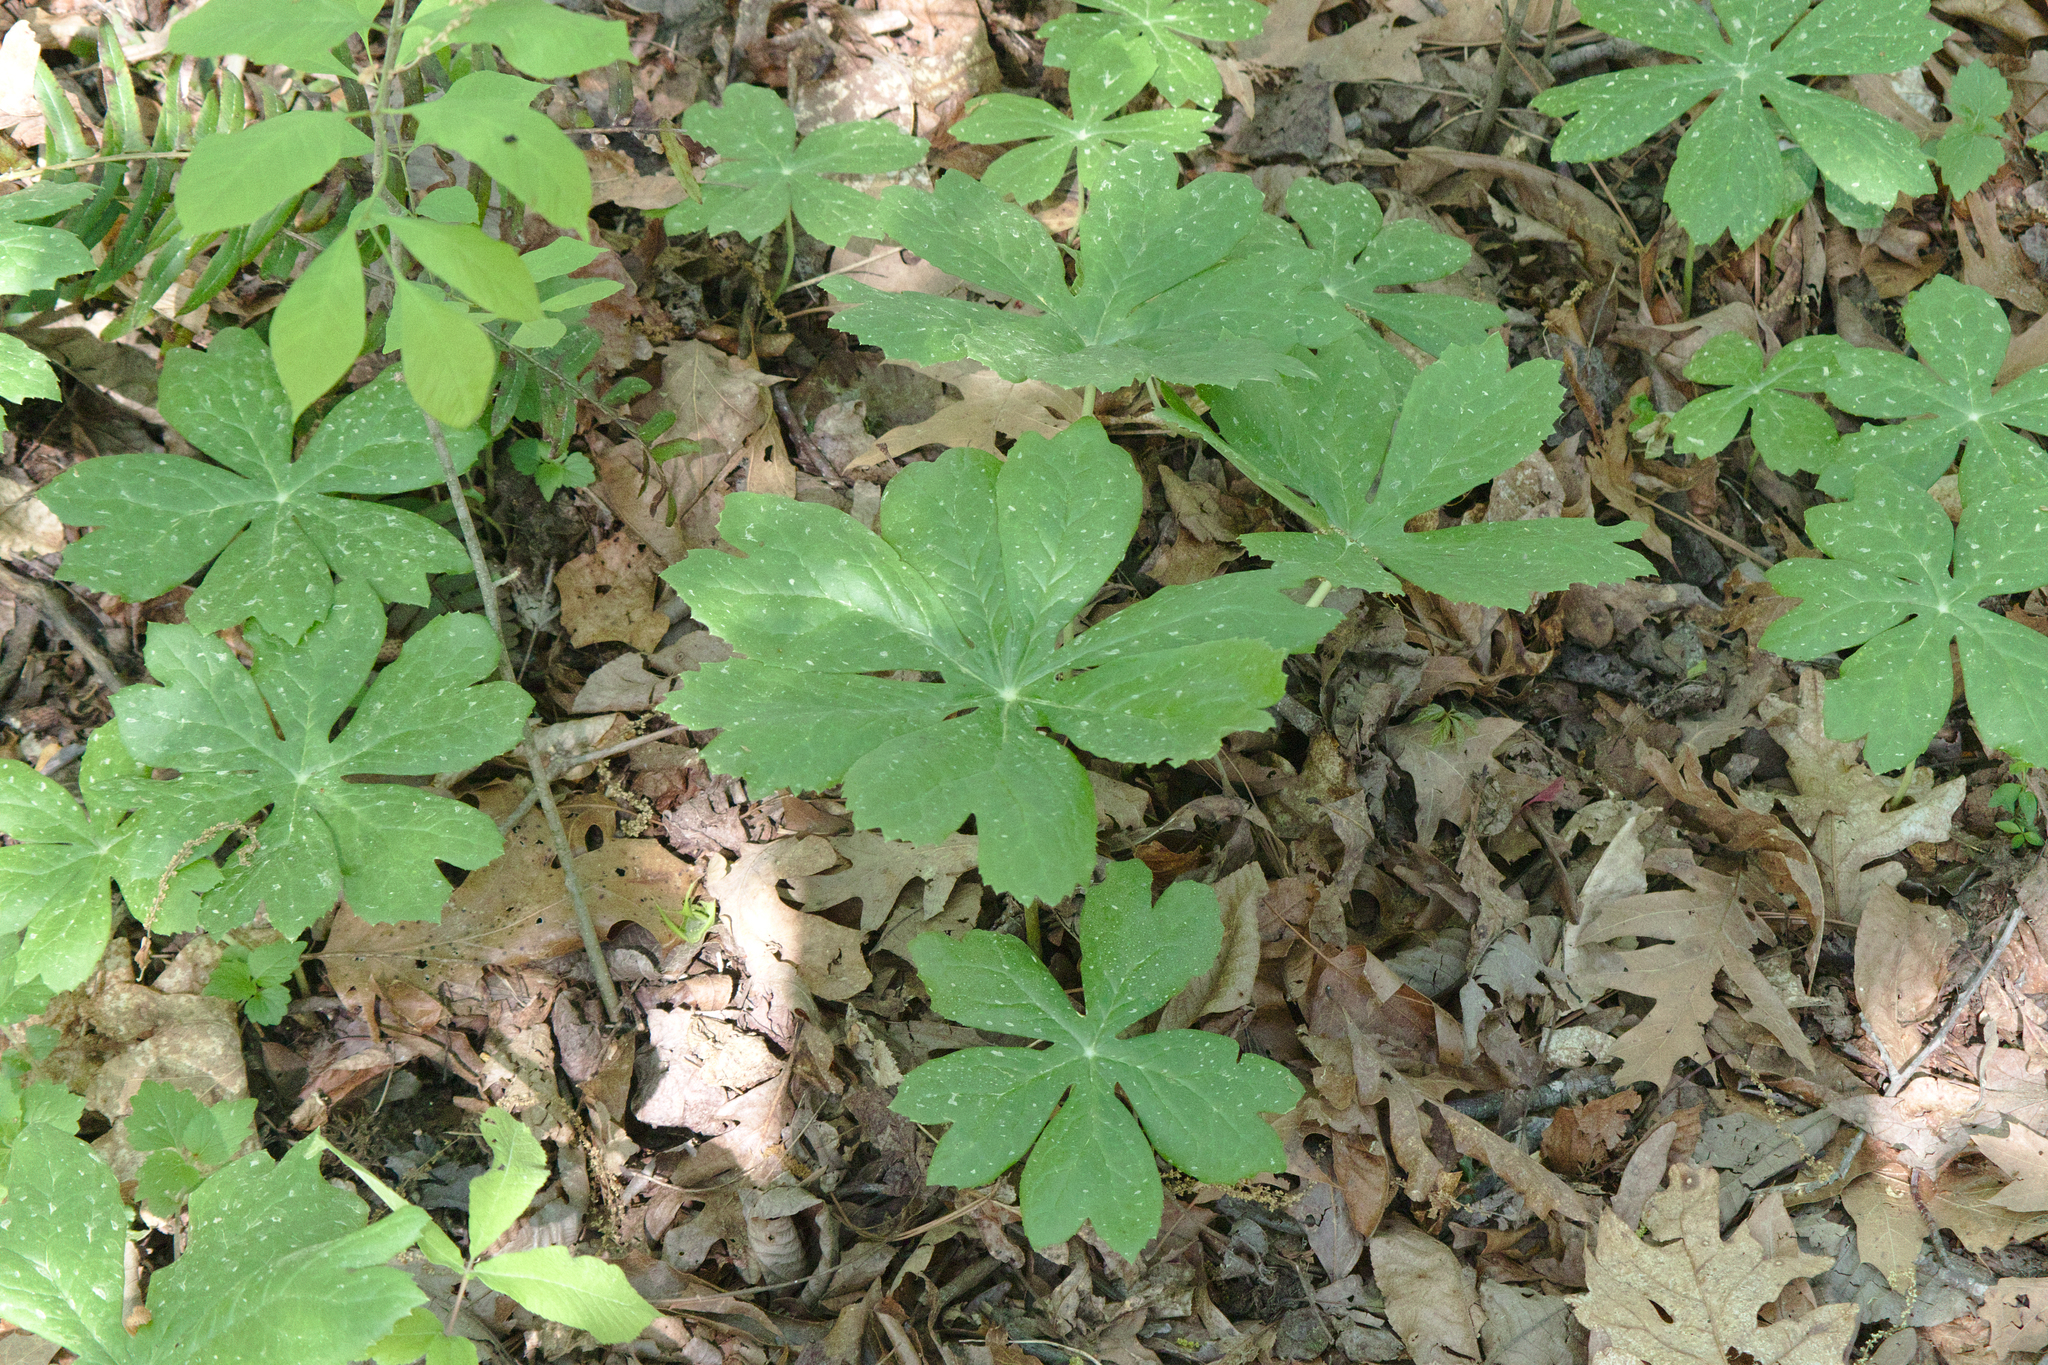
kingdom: Plantae
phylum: Tracheophyta
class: Magnoliopsida
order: Ranunculales
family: Berberidaceae
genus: Podophyllum
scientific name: Podophyllum peltatum
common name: Wild mandrake
